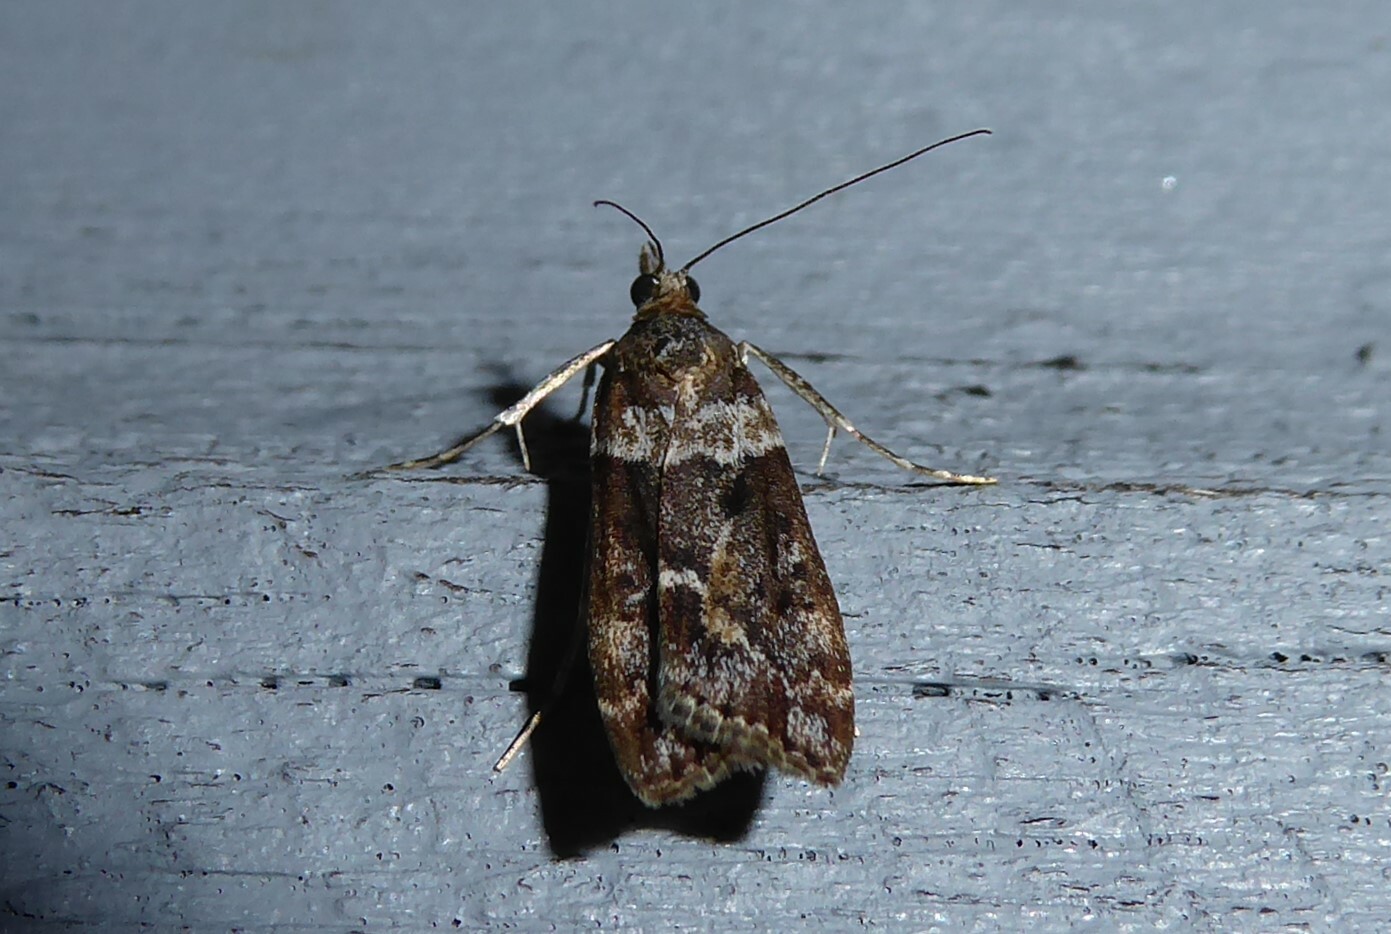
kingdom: Animalia
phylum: Arthropoda
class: Insecta
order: Lepidoptera
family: Crambidae
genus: Eudonia
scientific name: Eudonia submarginalis
